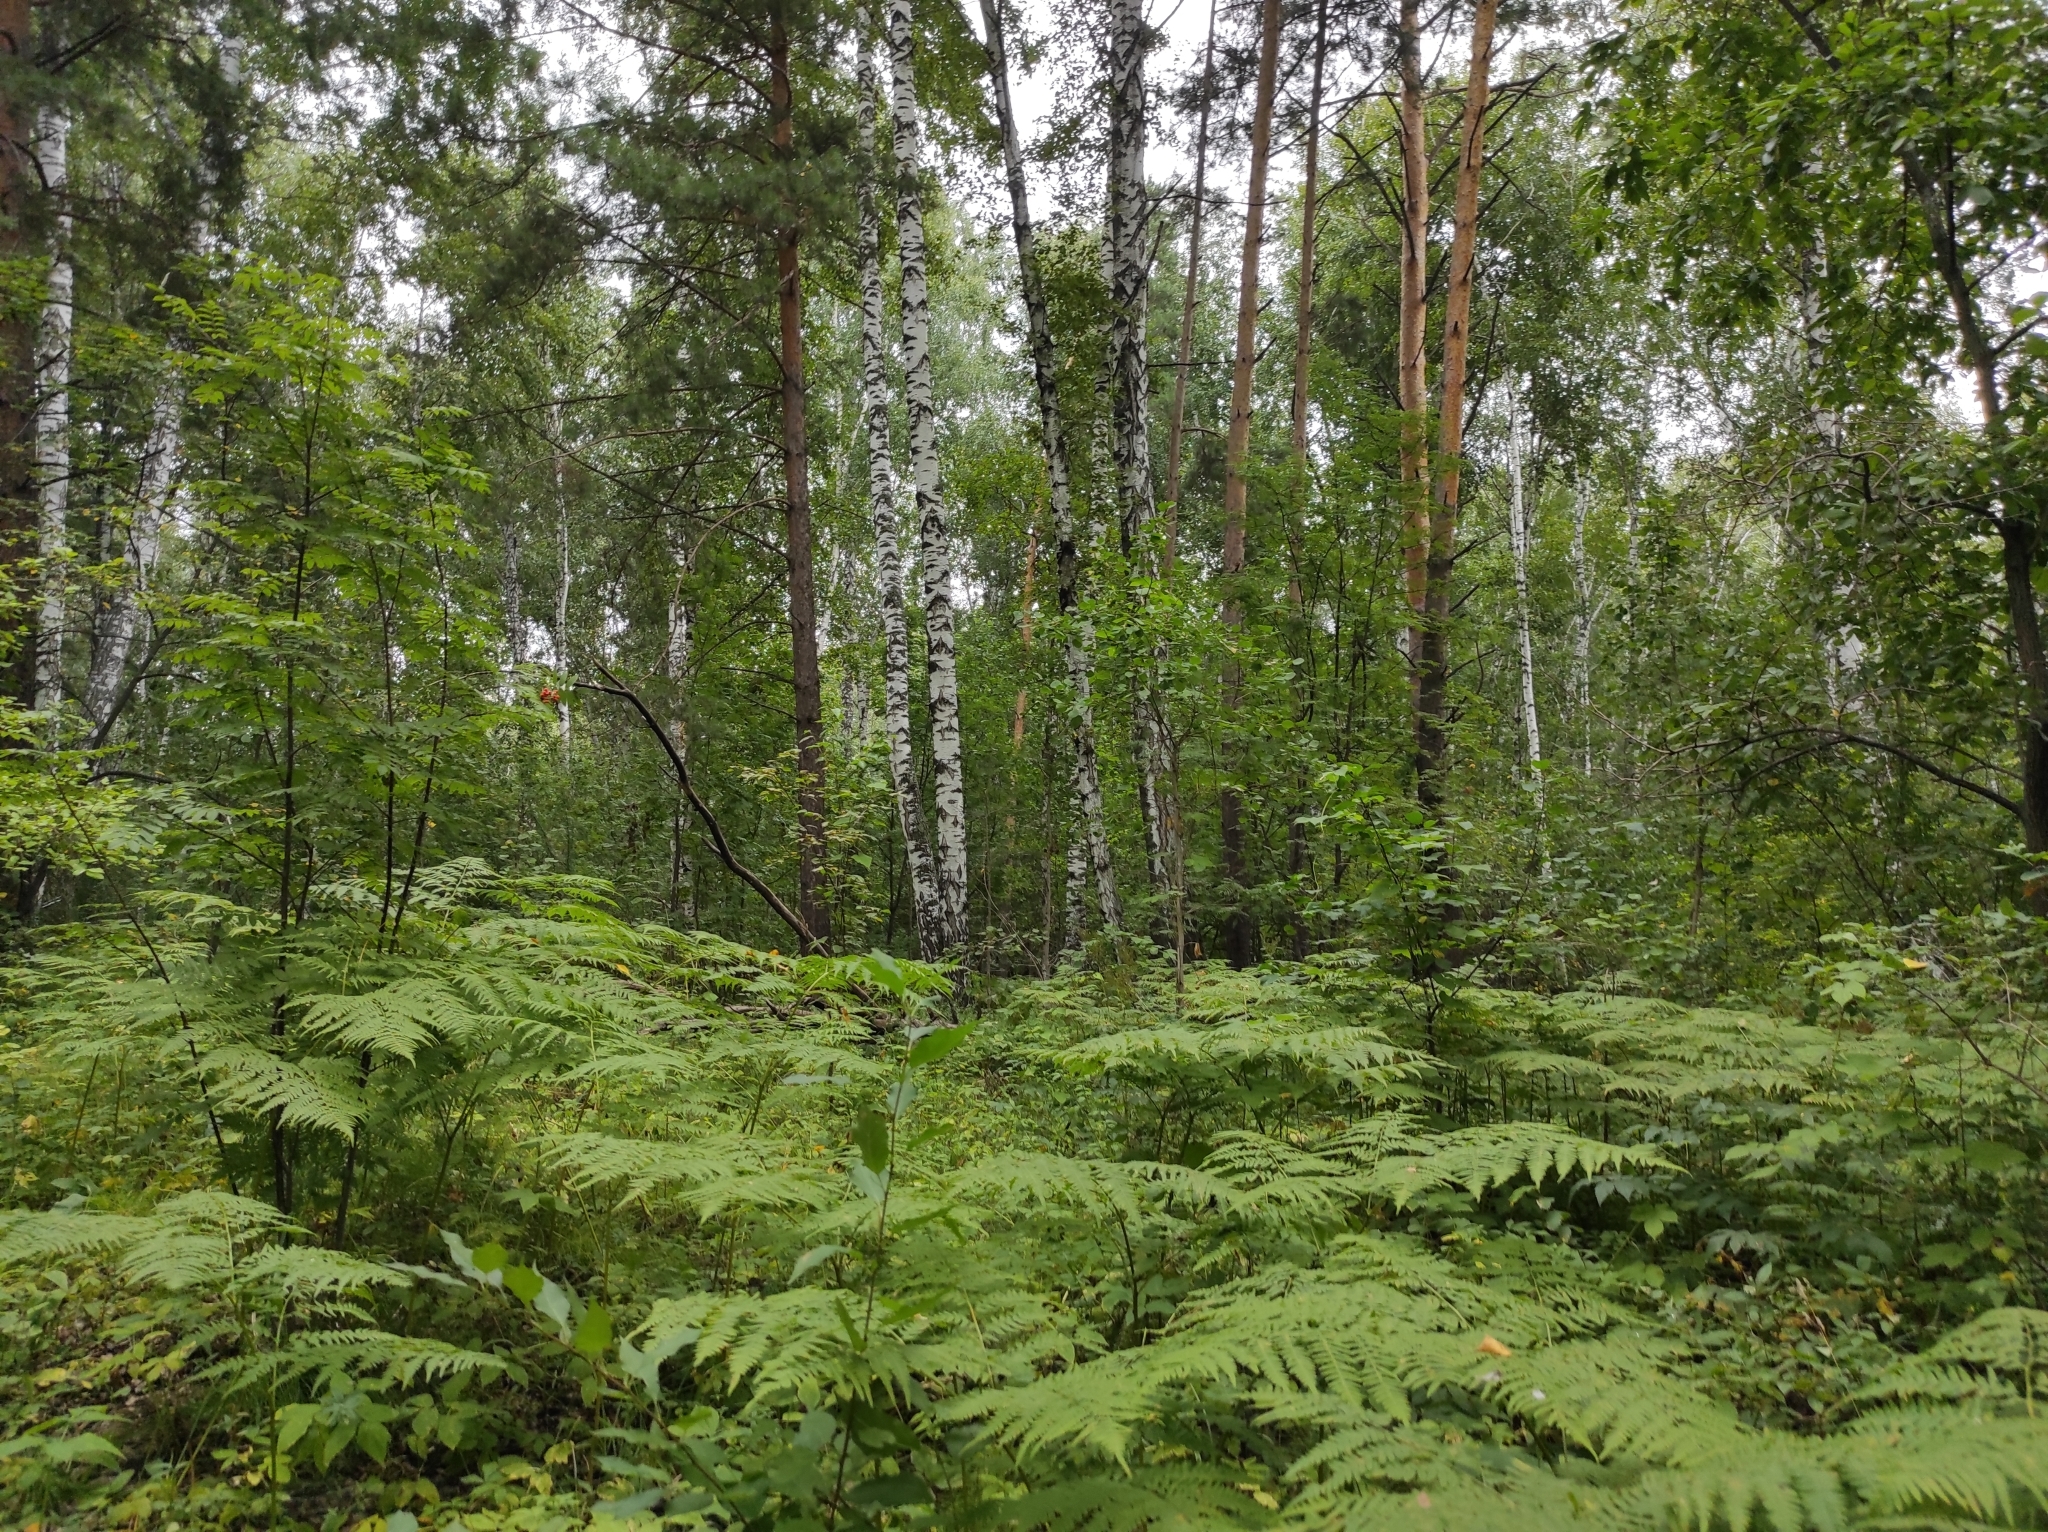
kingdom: Plantae
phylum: Tracheophyta
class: Polypodiopsida
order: Polypodiales
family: Dennstaedtiaceae
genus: Pteridium
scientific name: Pteridium aquilinum
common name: Bracken
